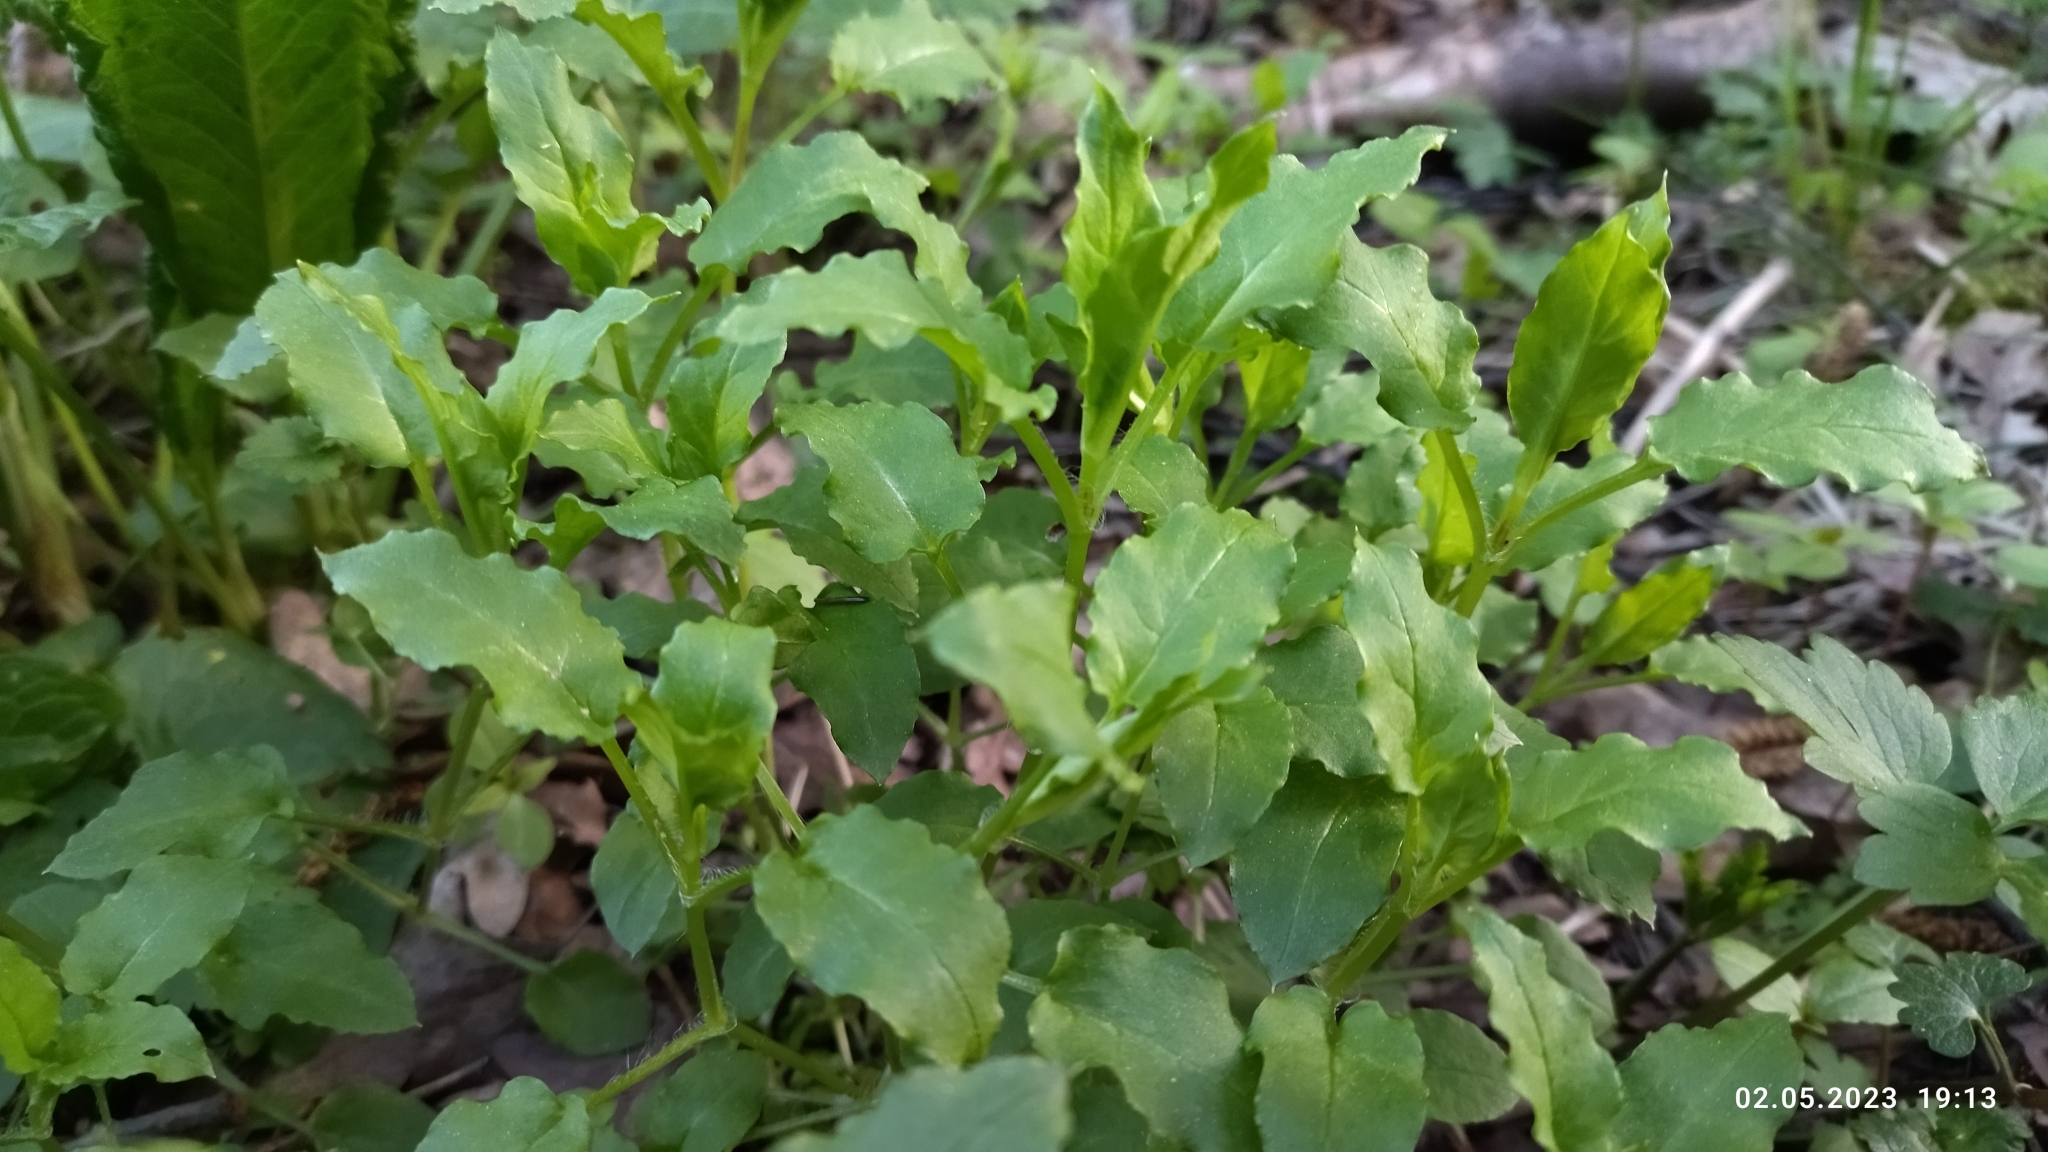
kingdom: Plantae
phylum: Tracheophyta
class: Magnoliopsida
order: Caryophyllales
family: Caryophyllaceae
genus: Stellaria
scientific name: Stellaria aquatica
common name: Water chickweed
